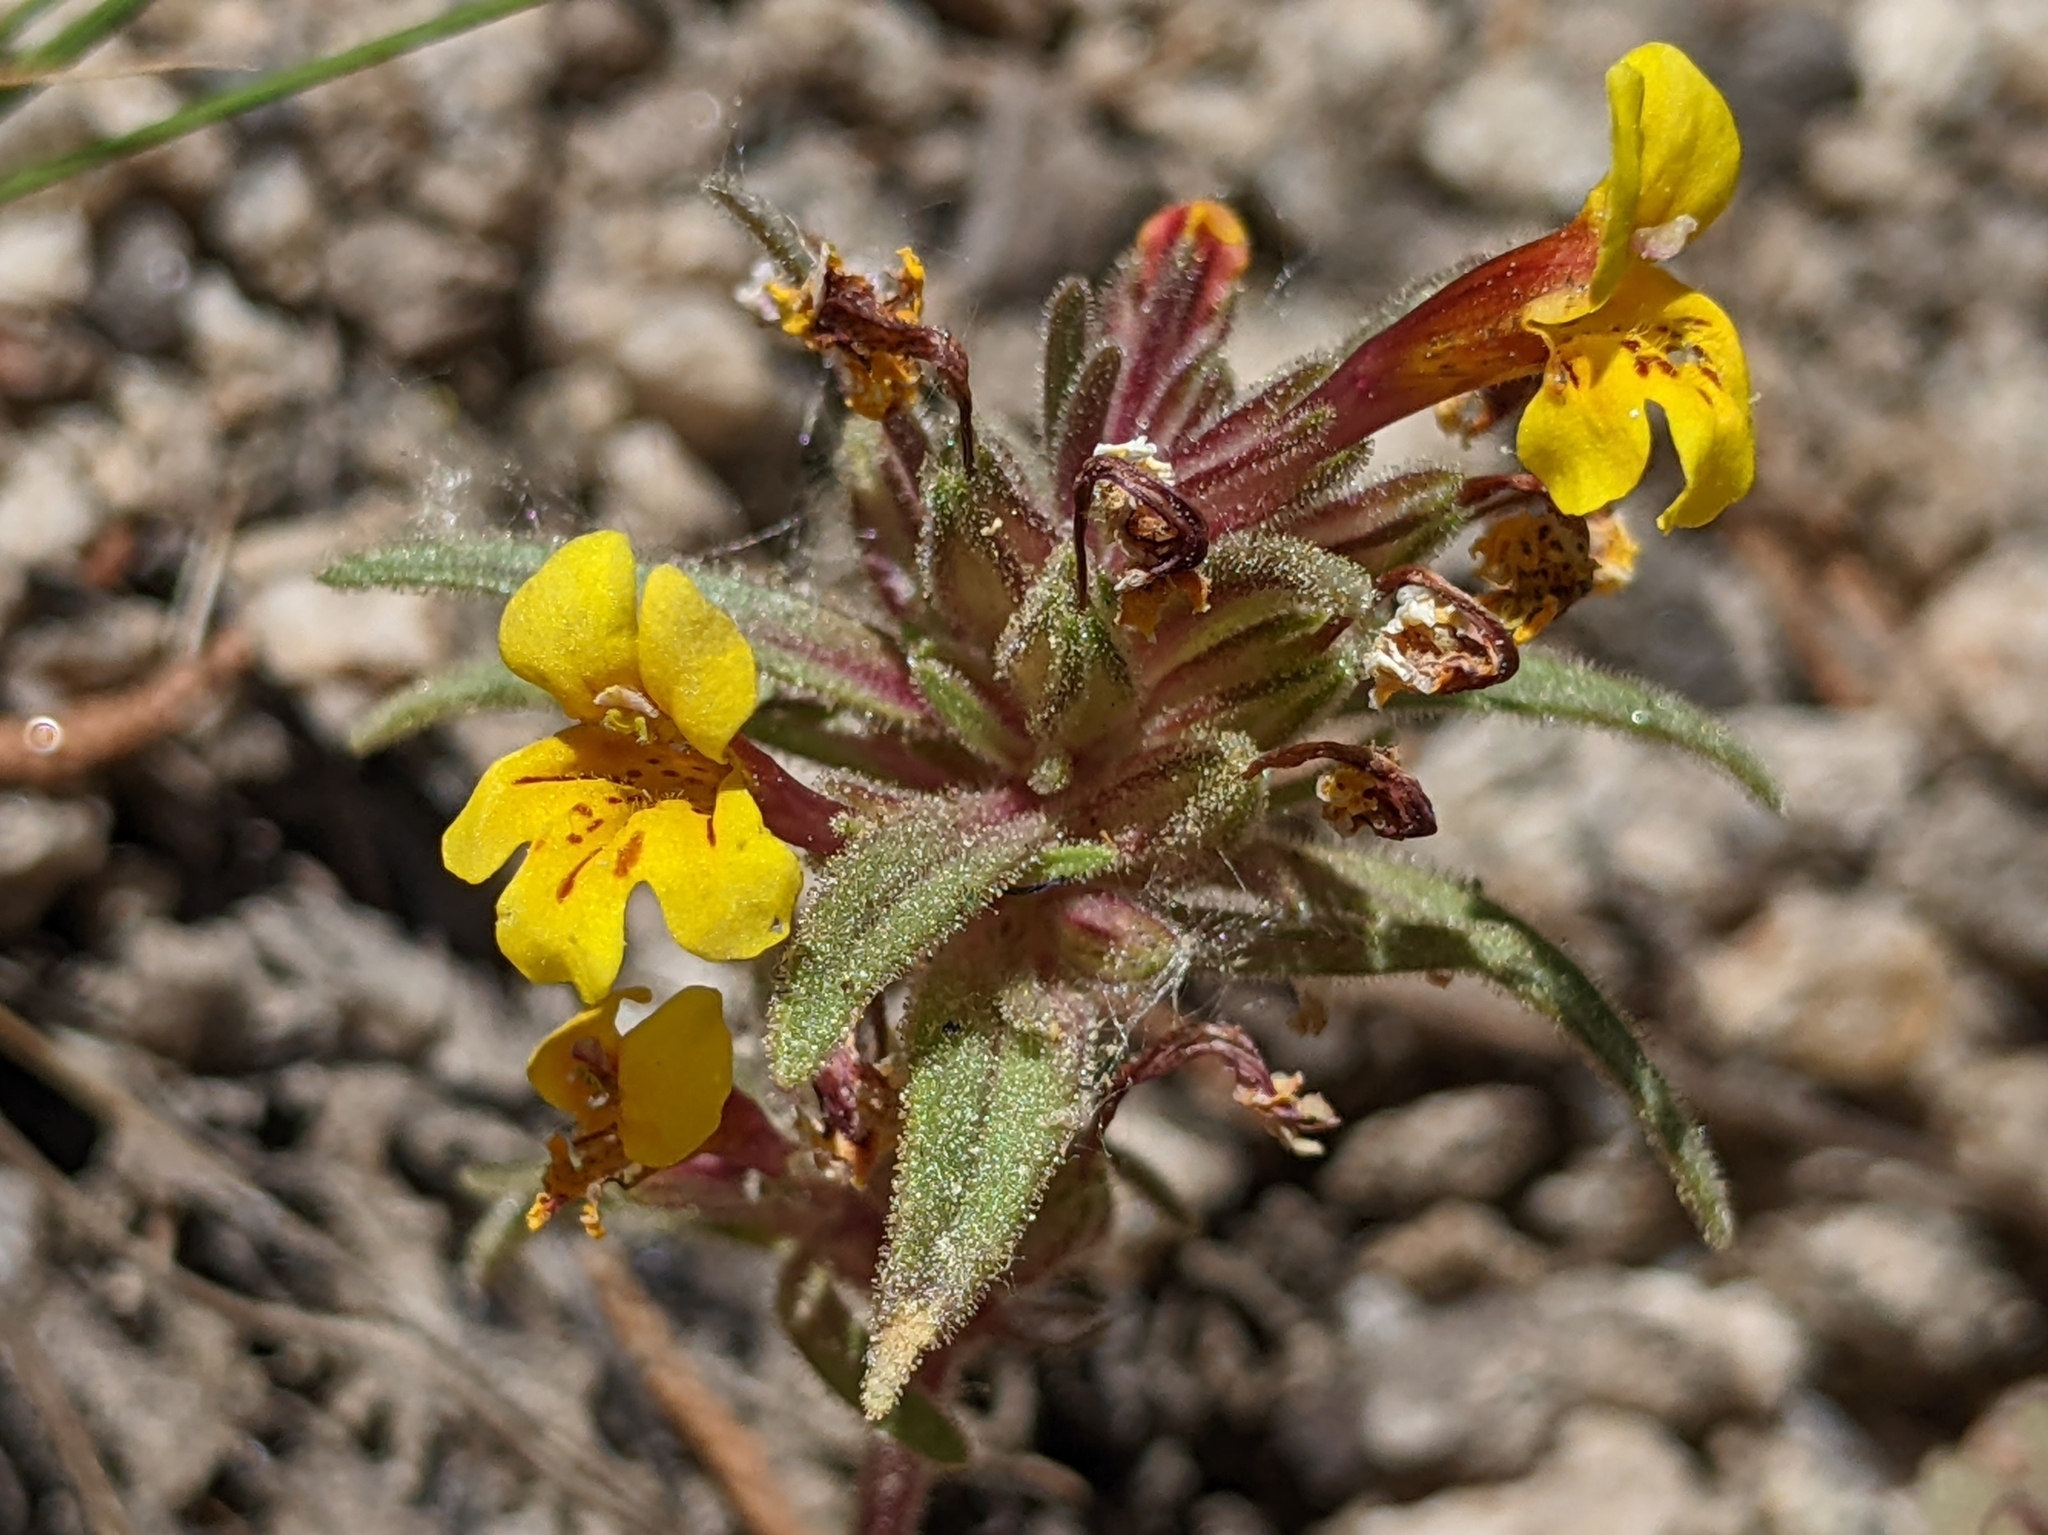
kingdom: Plantae
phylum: Tracheophyta
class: Magnoliopsida
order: Lamiales
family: Phrymaceae
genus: Diplacus
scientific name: Diplacus mephiticus
